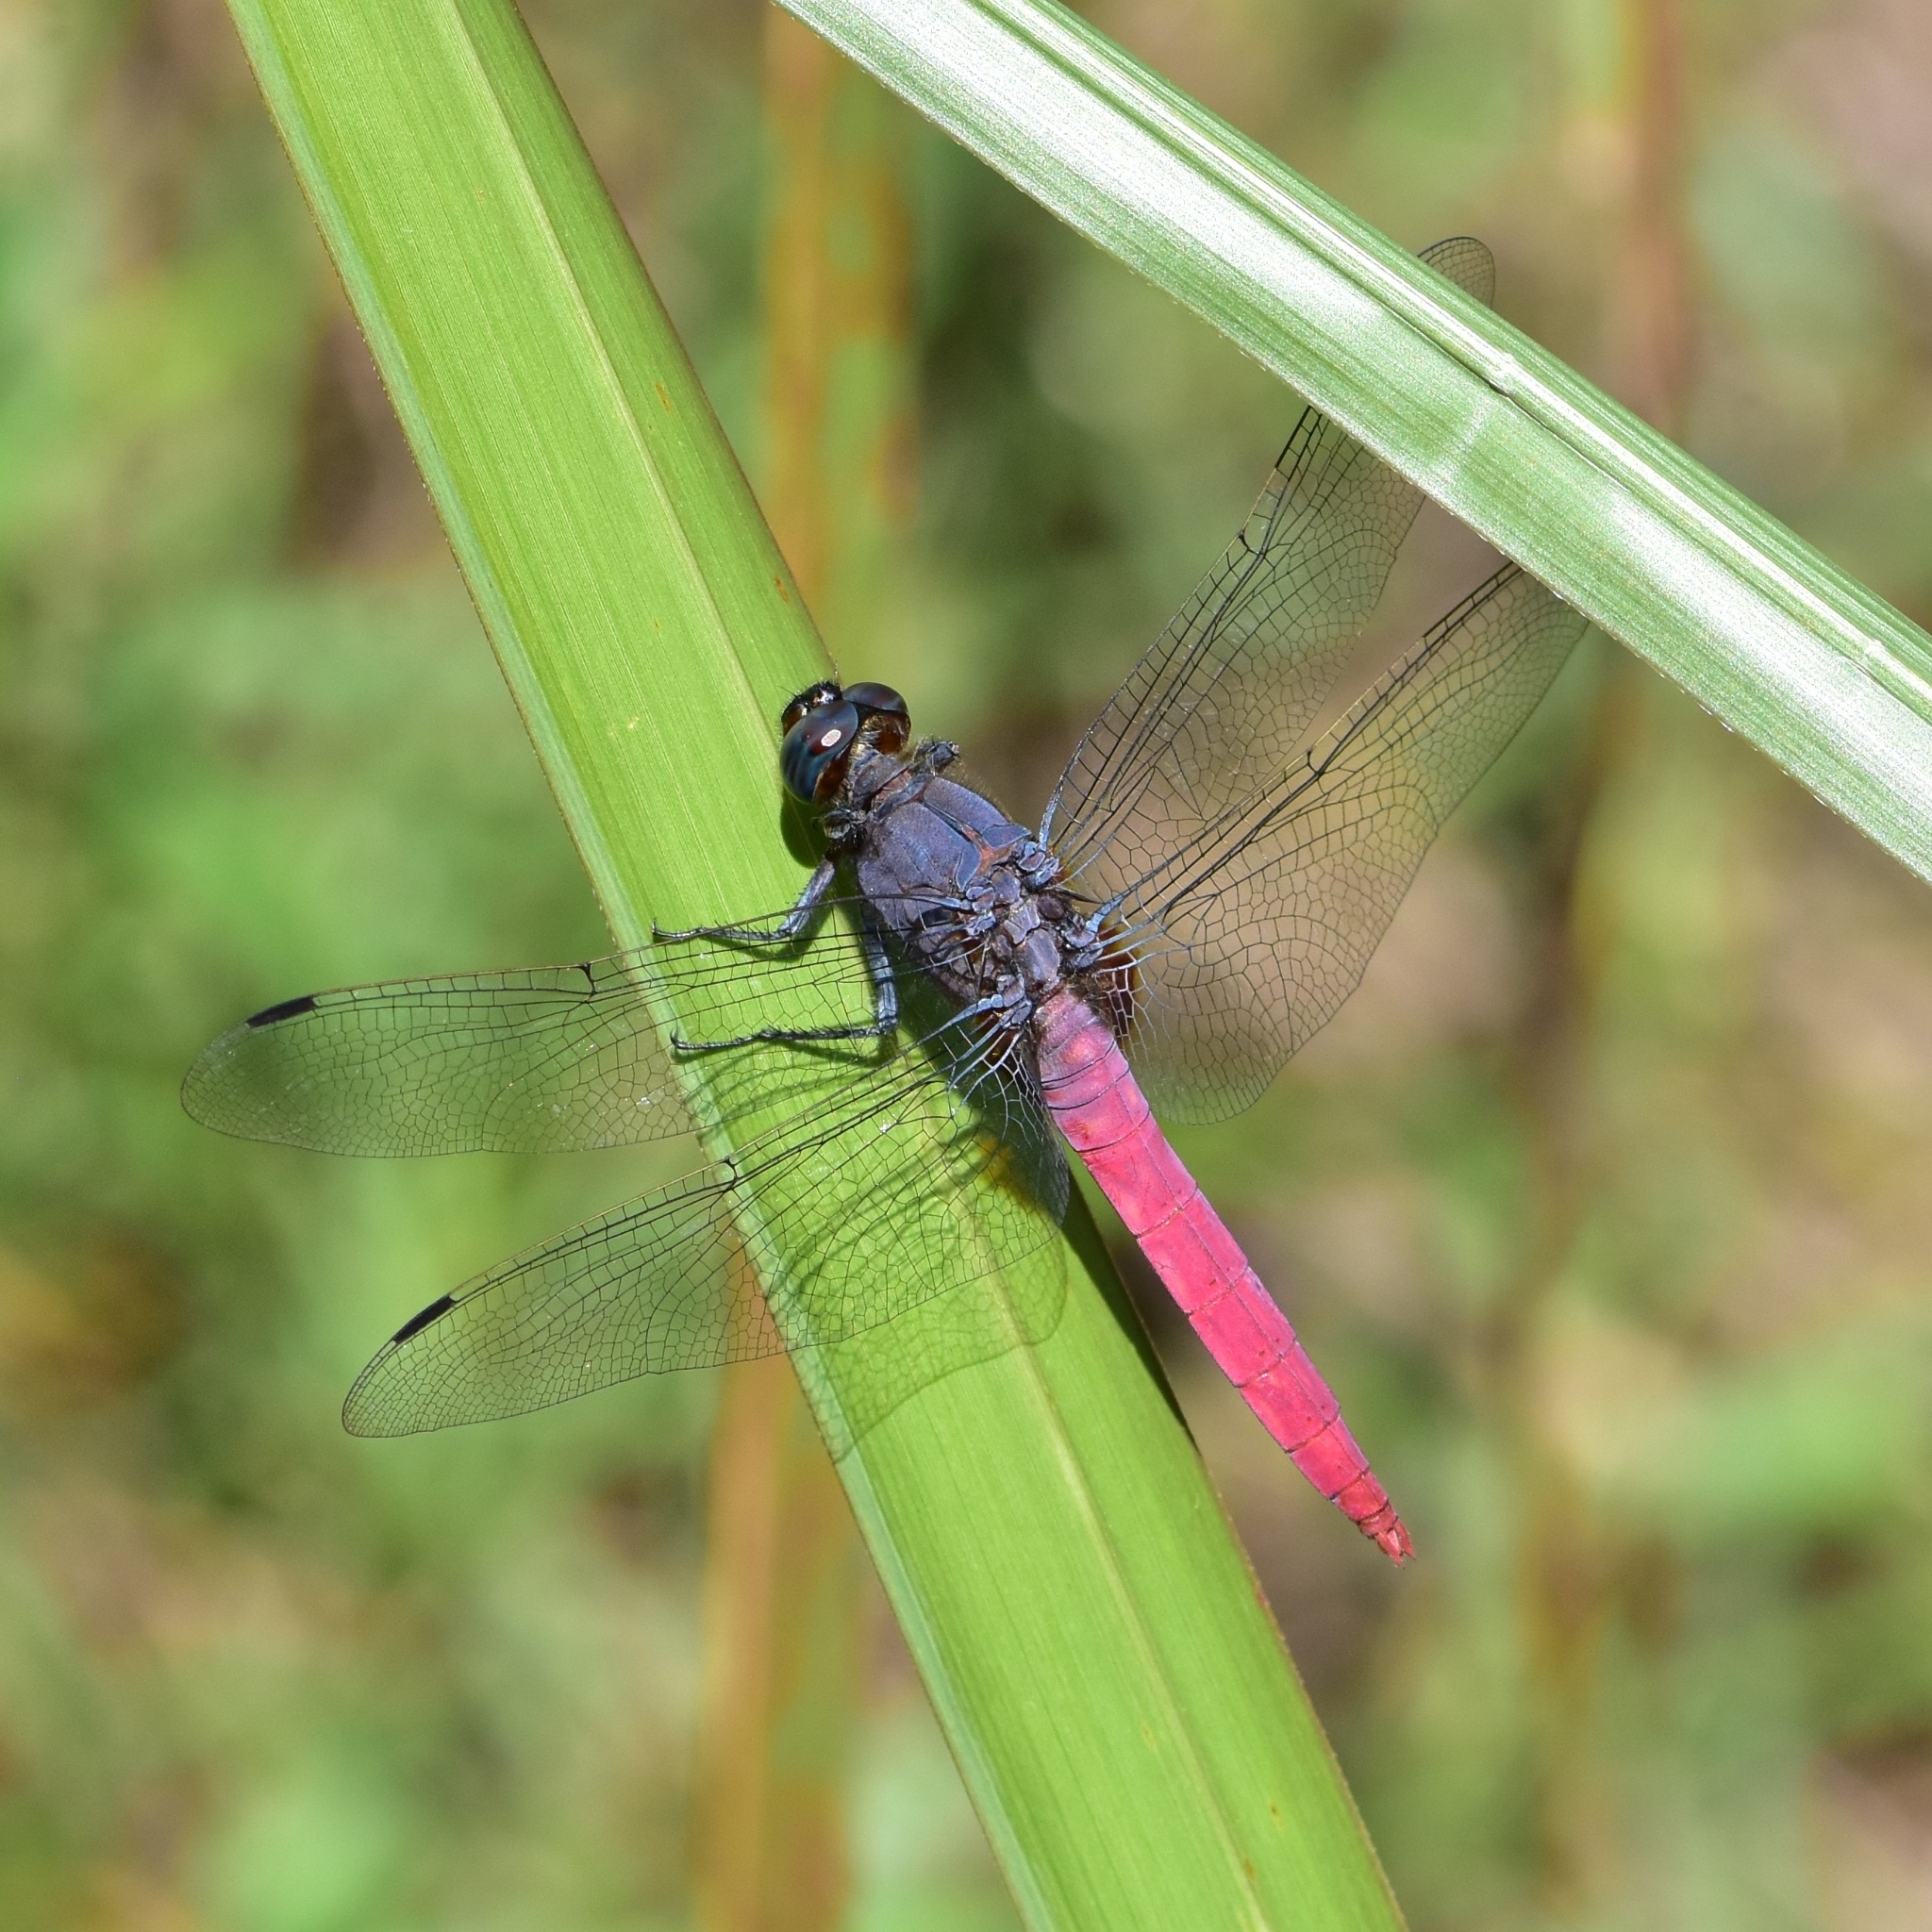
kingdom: Animalia
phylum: Arthropoda
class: Insecta
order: Odonata
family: Libellulidae
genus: Orthetrum
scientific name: Orthetrum pruinosum
